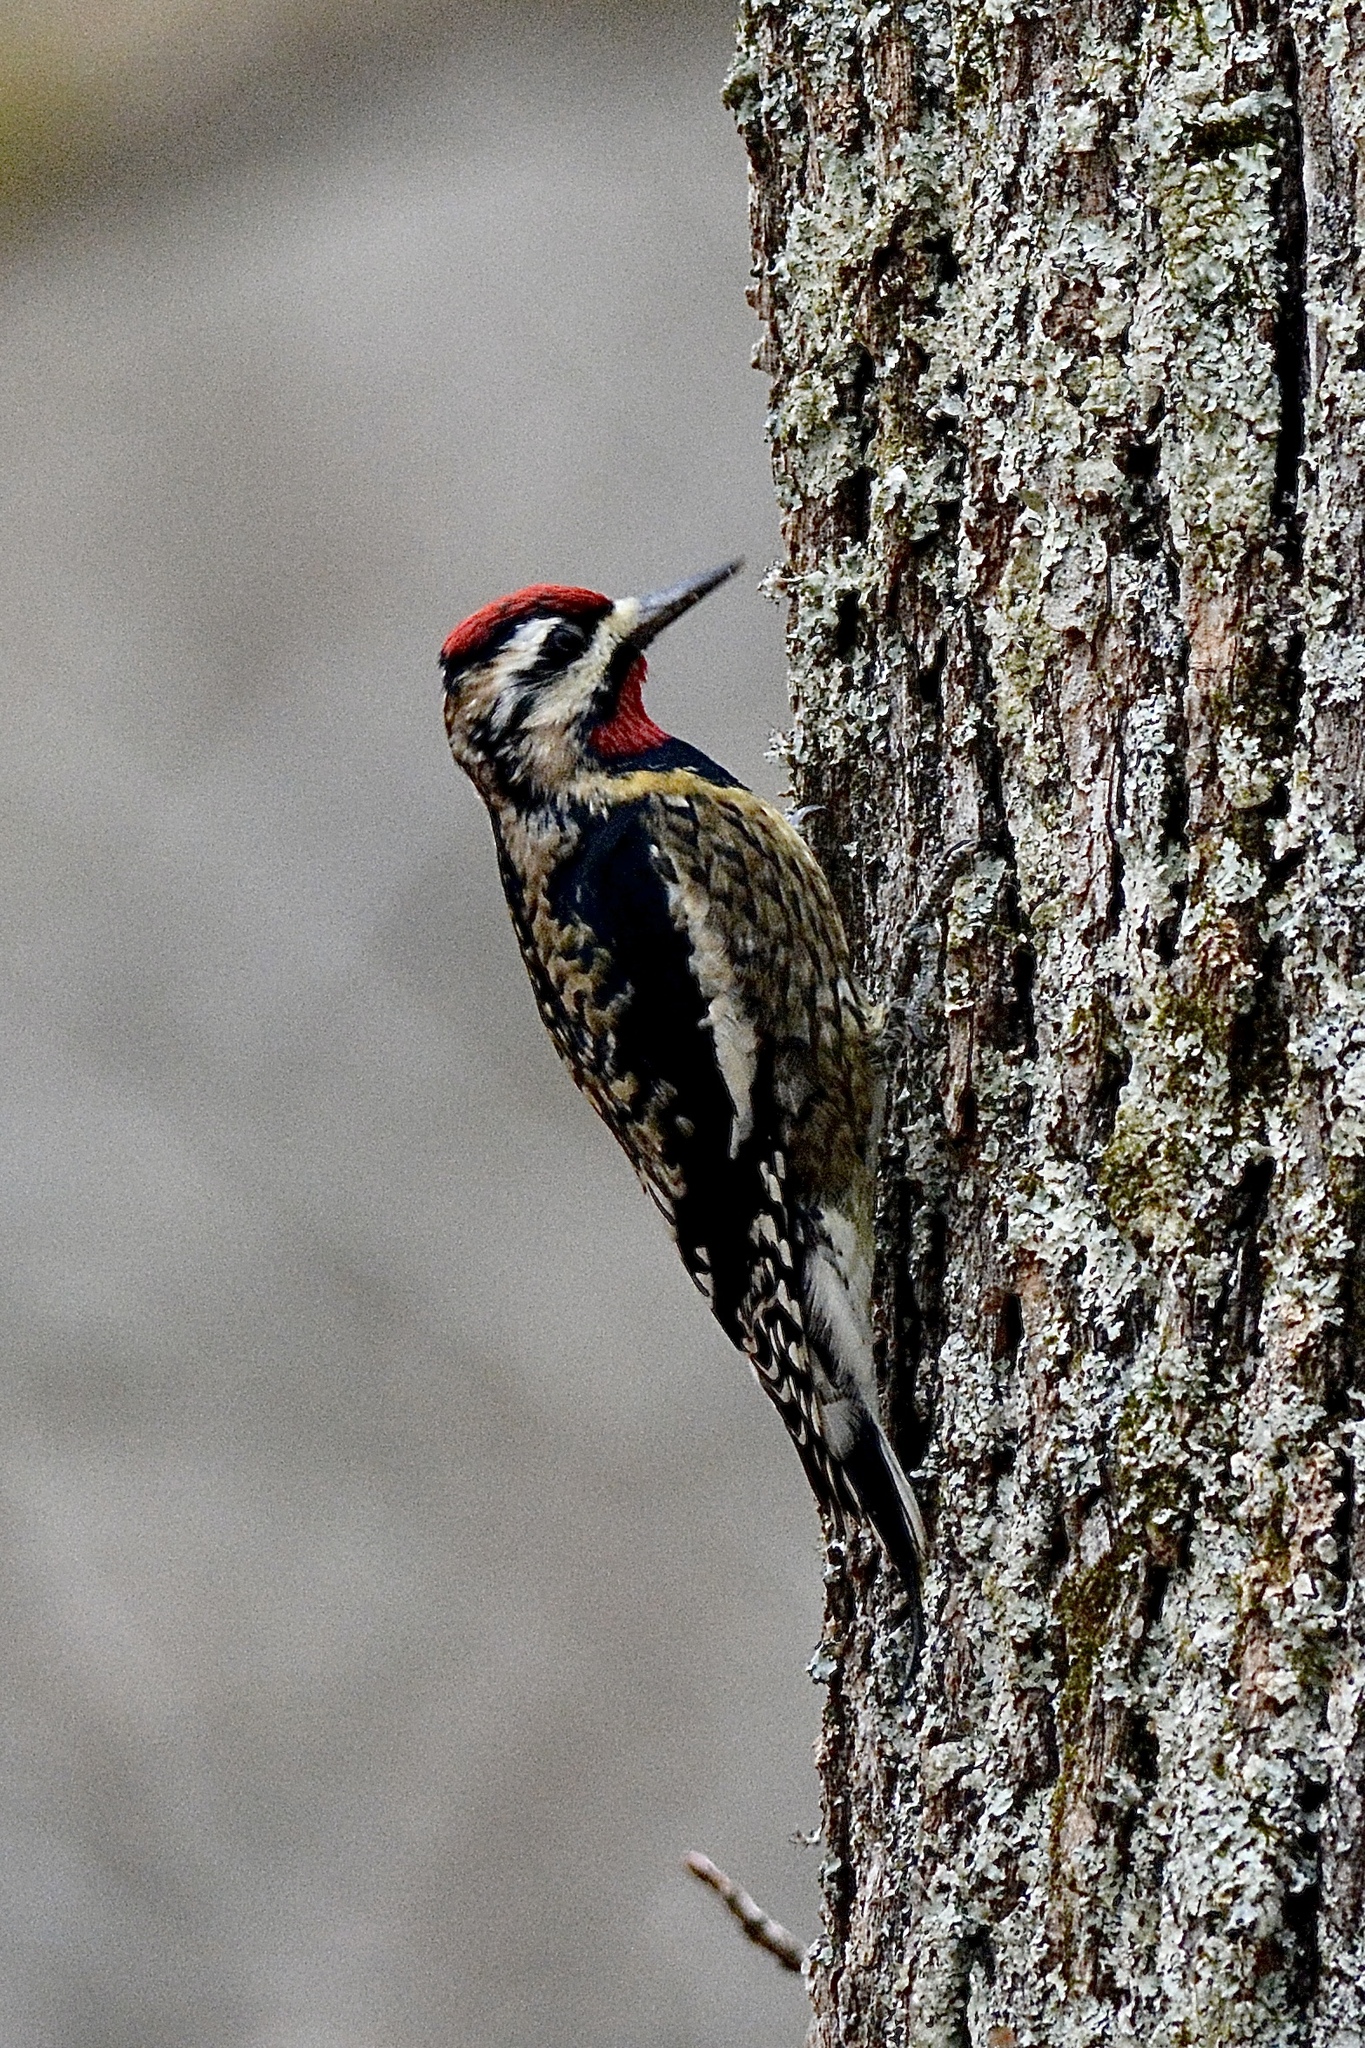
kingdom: Animalia
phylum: Chordata
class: Aves
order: Piciformes
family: Picidae
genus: Sphyrapicus
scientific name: Sphyrapicus varius
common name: Yellow-bellied sapsucker
